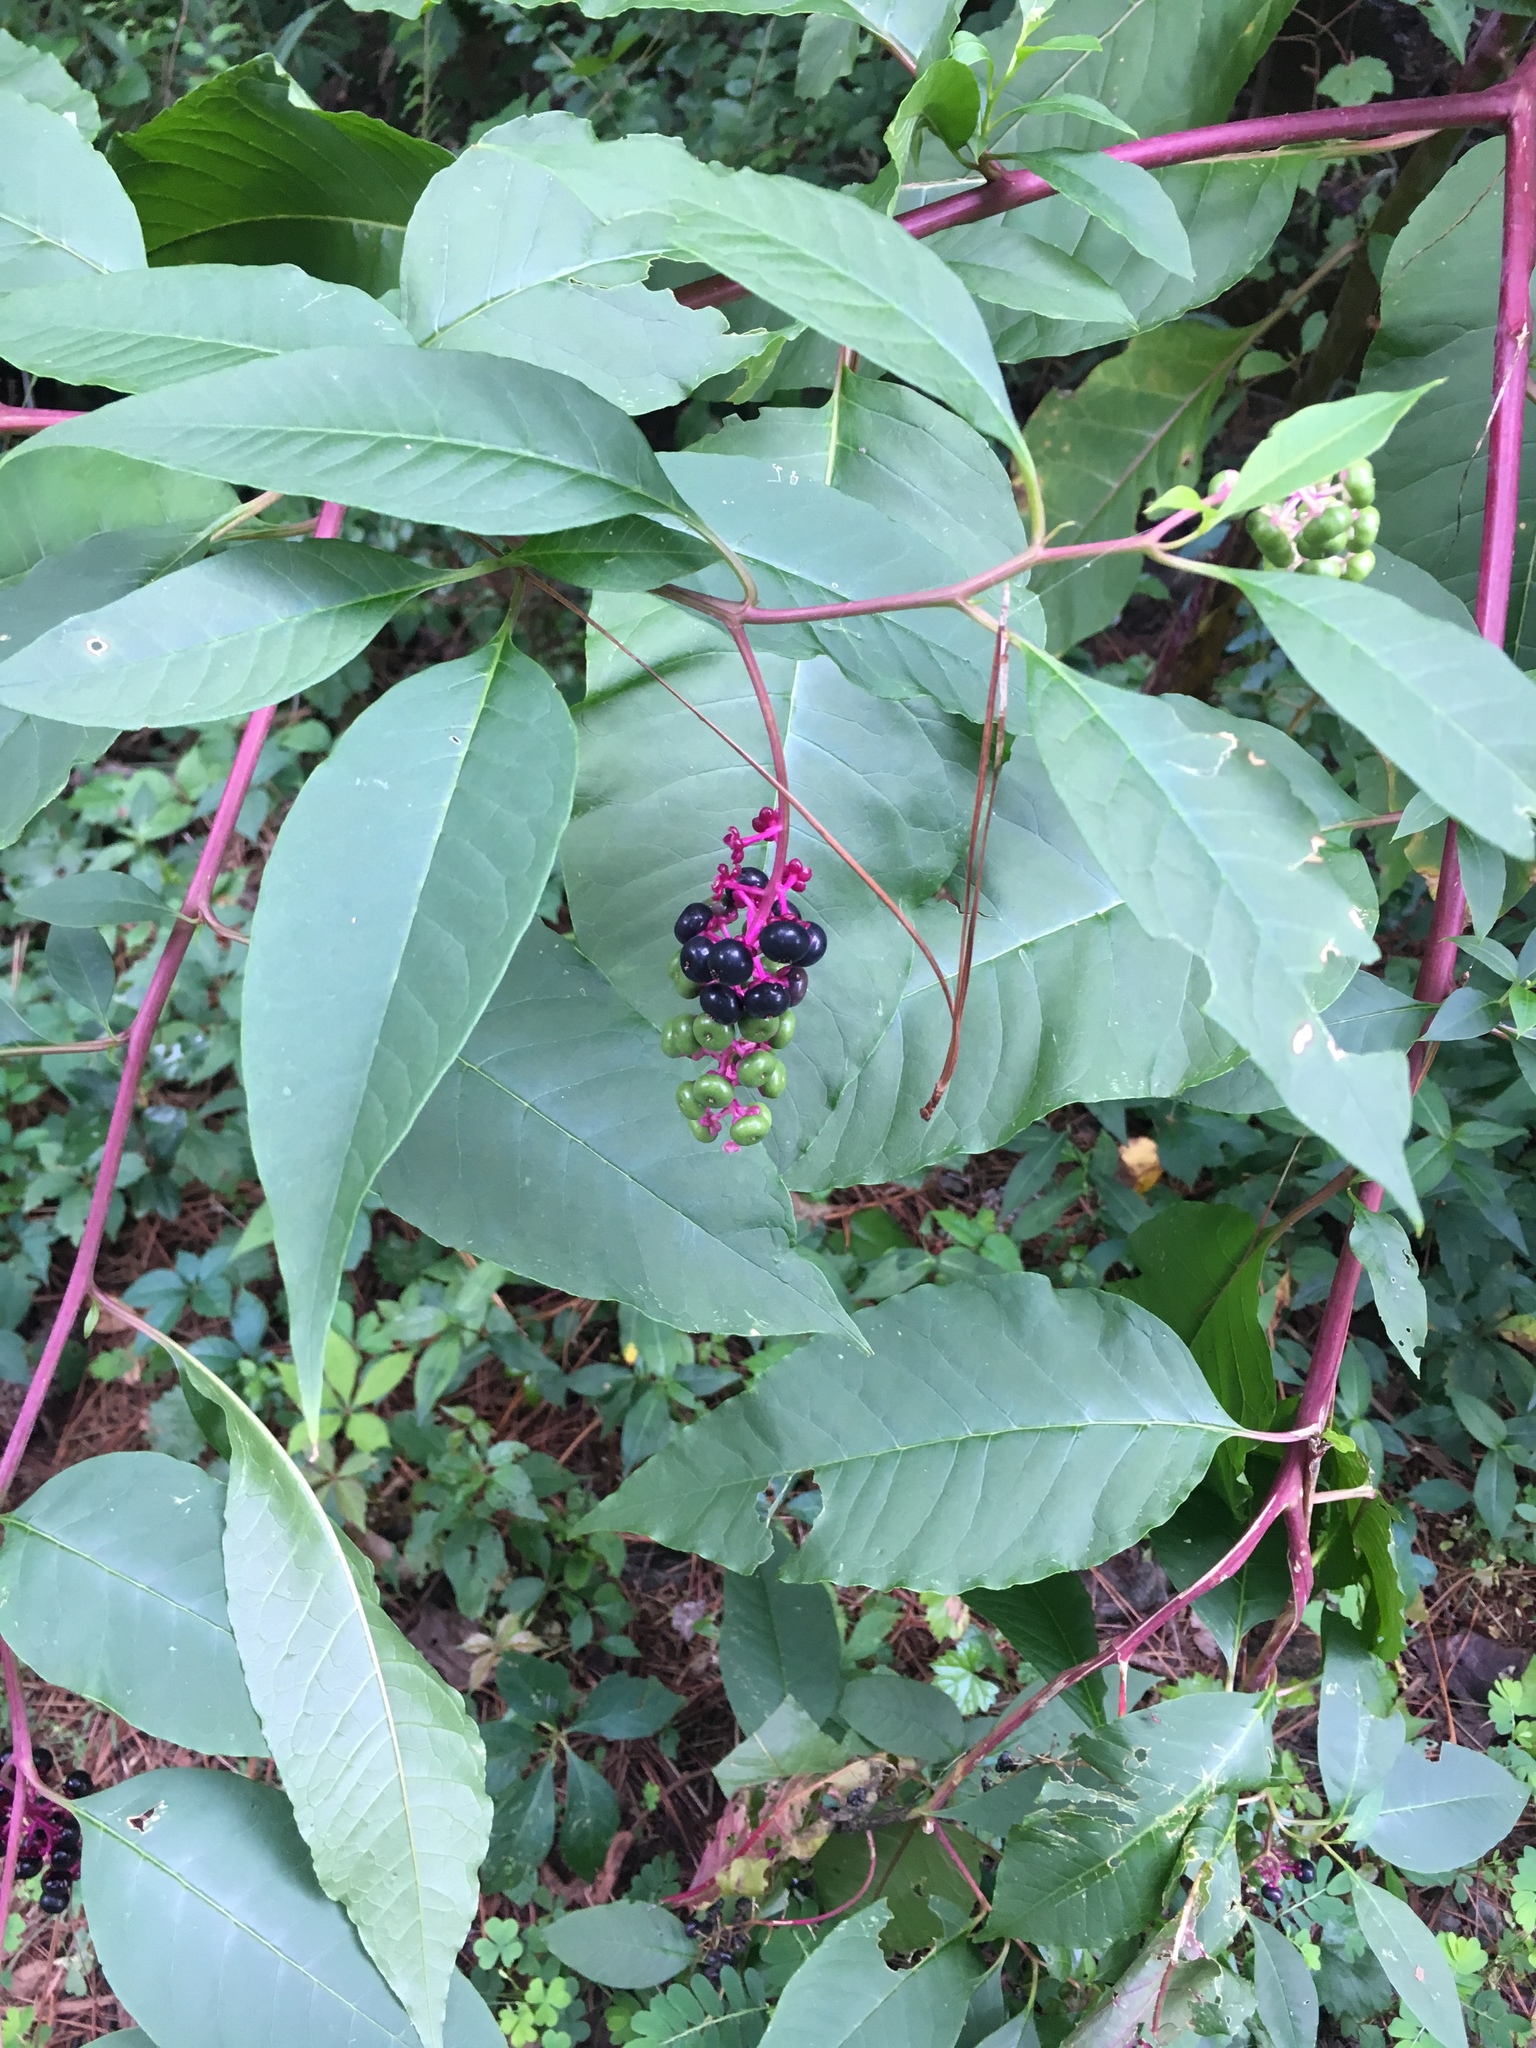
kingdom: Plantae
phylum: Tracheophyta
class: Magnoliopsida
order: Caryophyllales
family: Phytolaccaceae
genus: Phytolacca
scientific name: Phytolacca americana
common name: American pokeweed
